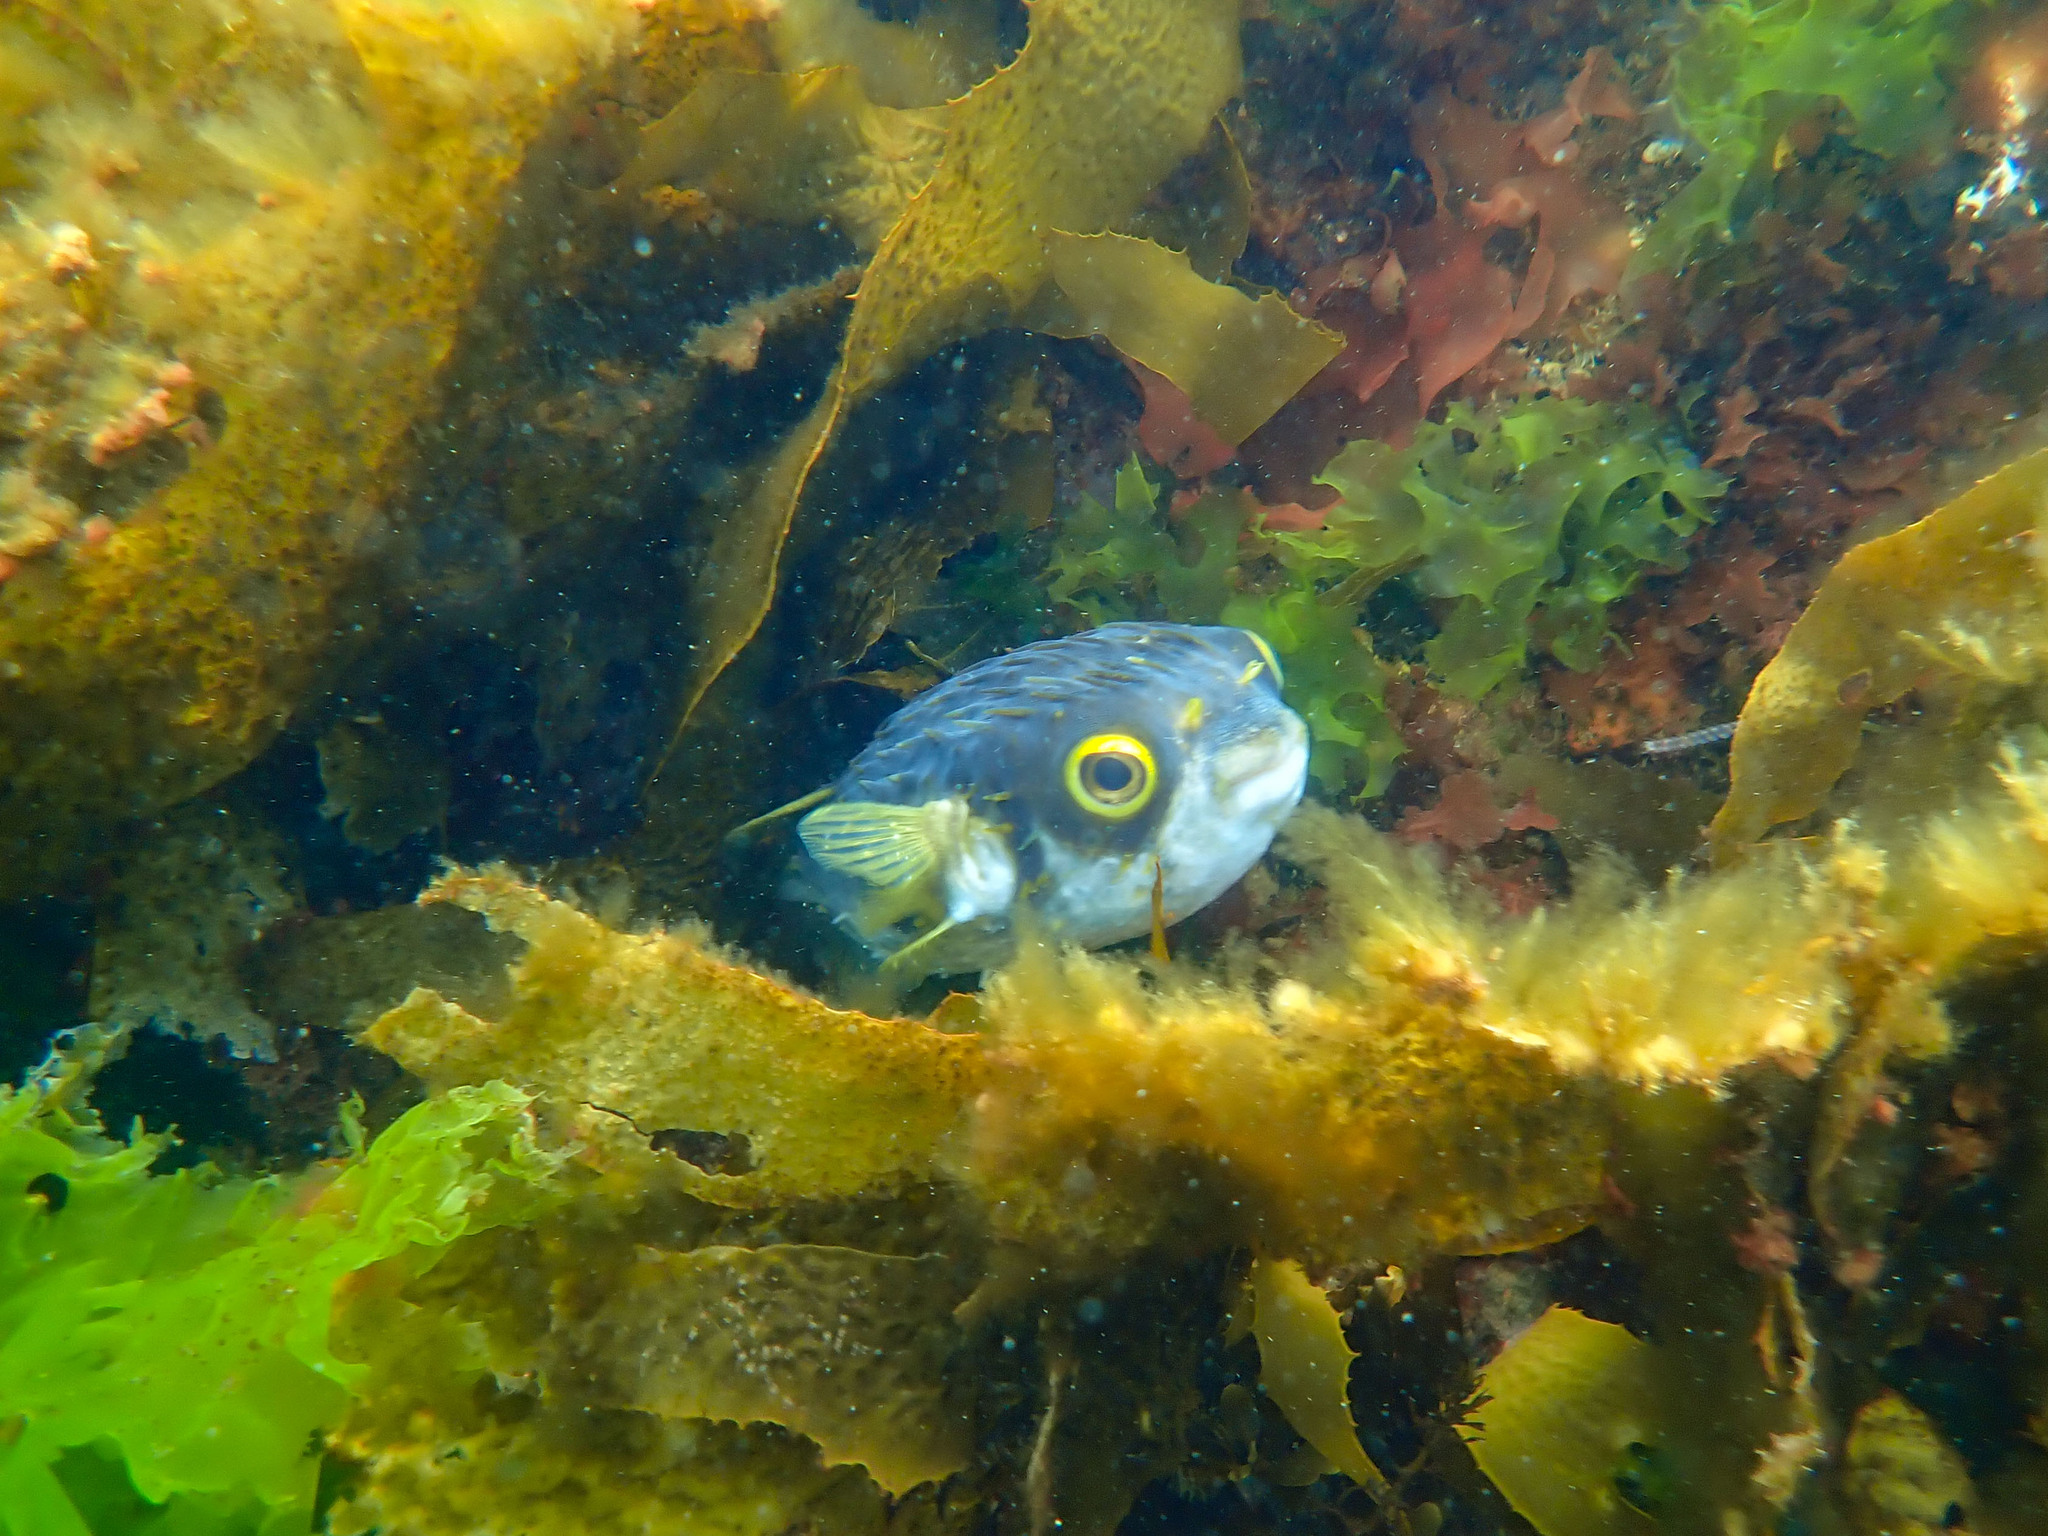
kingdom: Animalia
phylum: Chordata
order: Tetraodontiformes
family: Diodontidae
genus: Diodon
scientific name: Diodon nicthemerus
